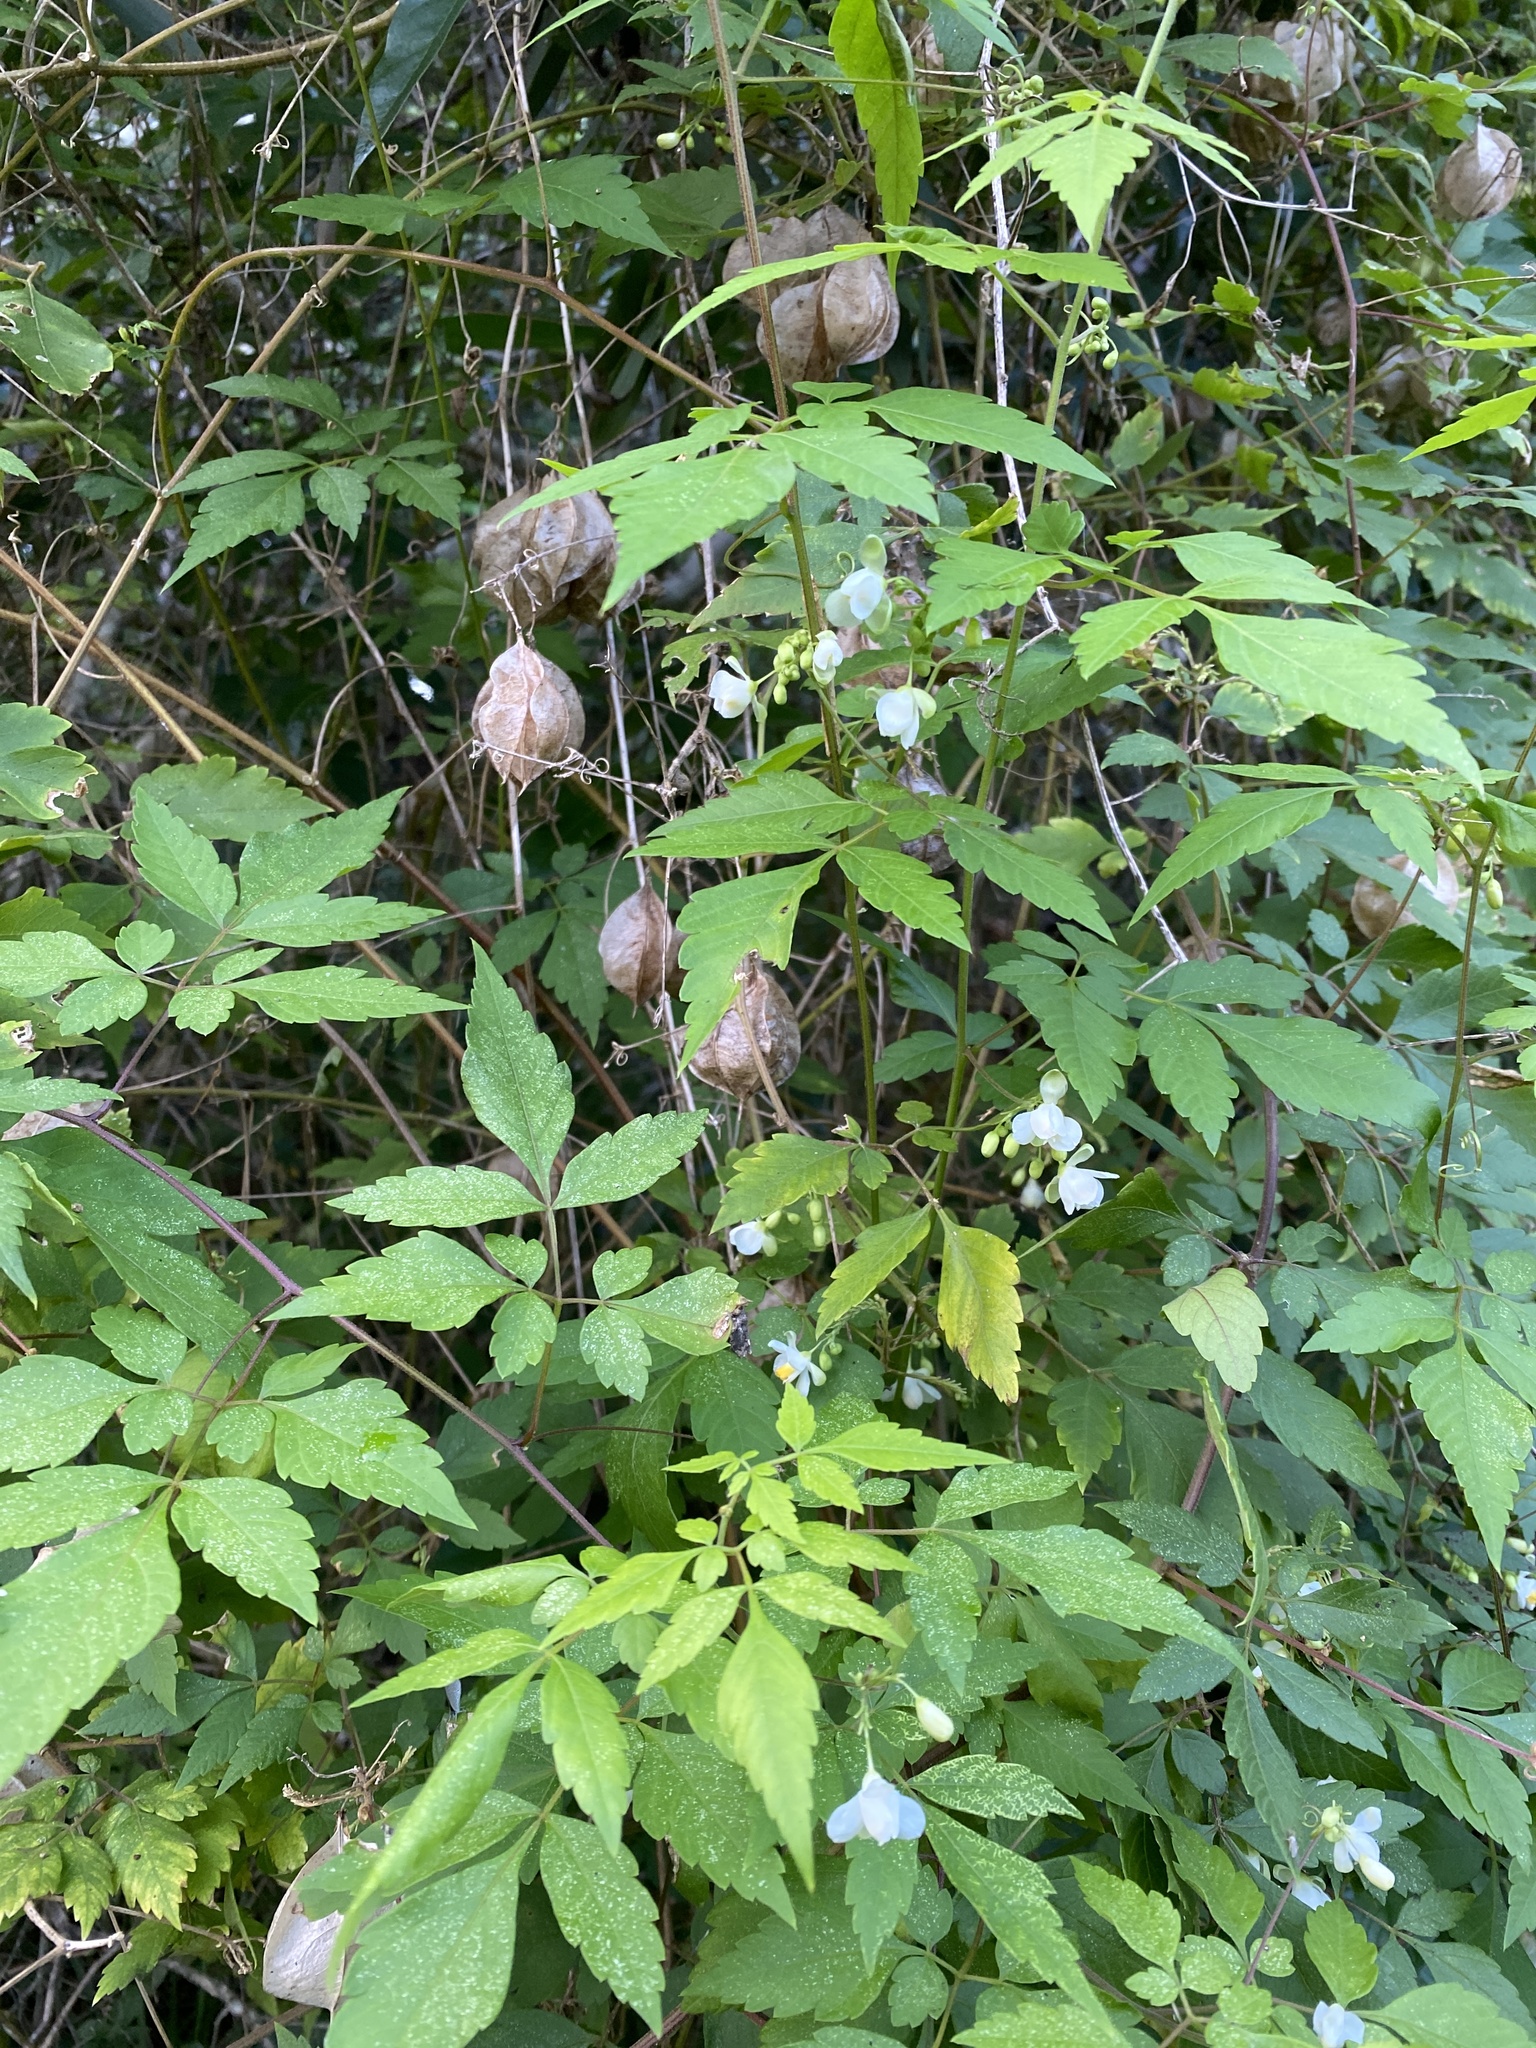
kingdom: Plantae
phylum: Tracheophyta
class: Magnoliopsida
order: Sapindales
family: Sapindaceae
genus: Cardiospermum
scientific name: Cardiospermum grandiflorum
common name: Balloon vine
